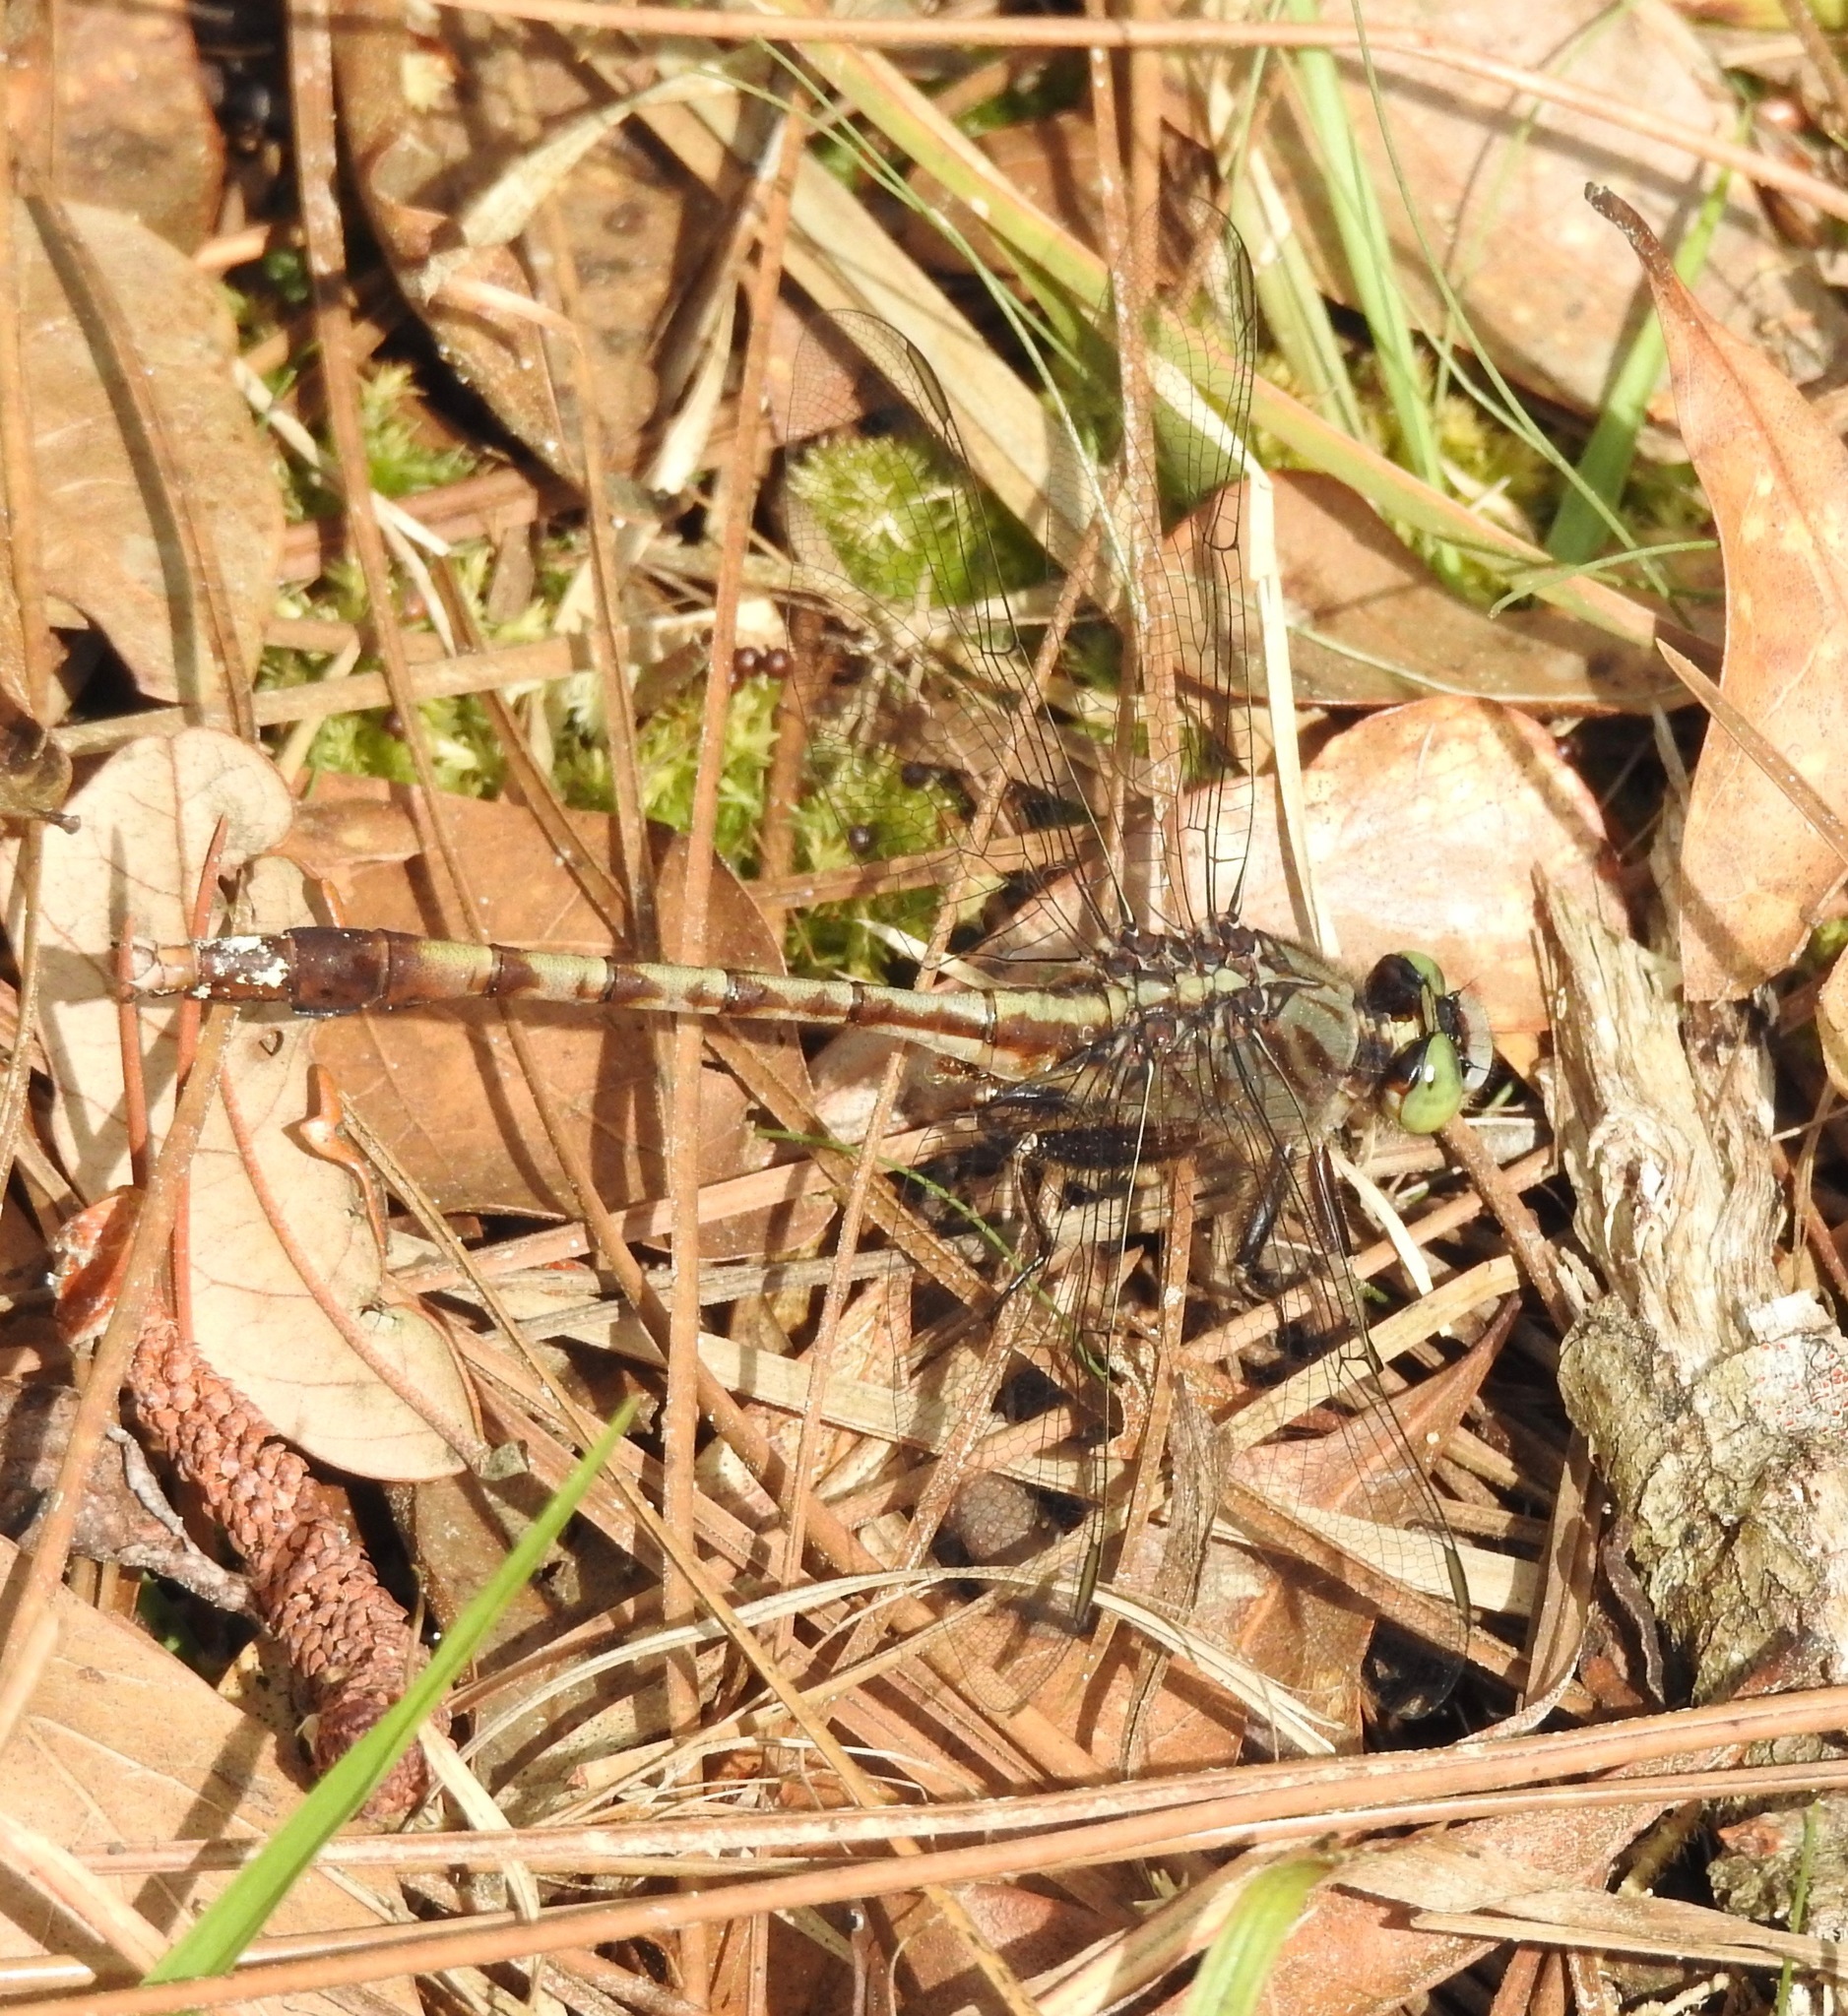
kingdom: Animalia
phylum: Arthropoda
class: Insecta
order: Odonata
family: Gomphidae
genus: Arigomphus
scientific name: Arigomphus pallidus
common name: Gray-green clubtail
